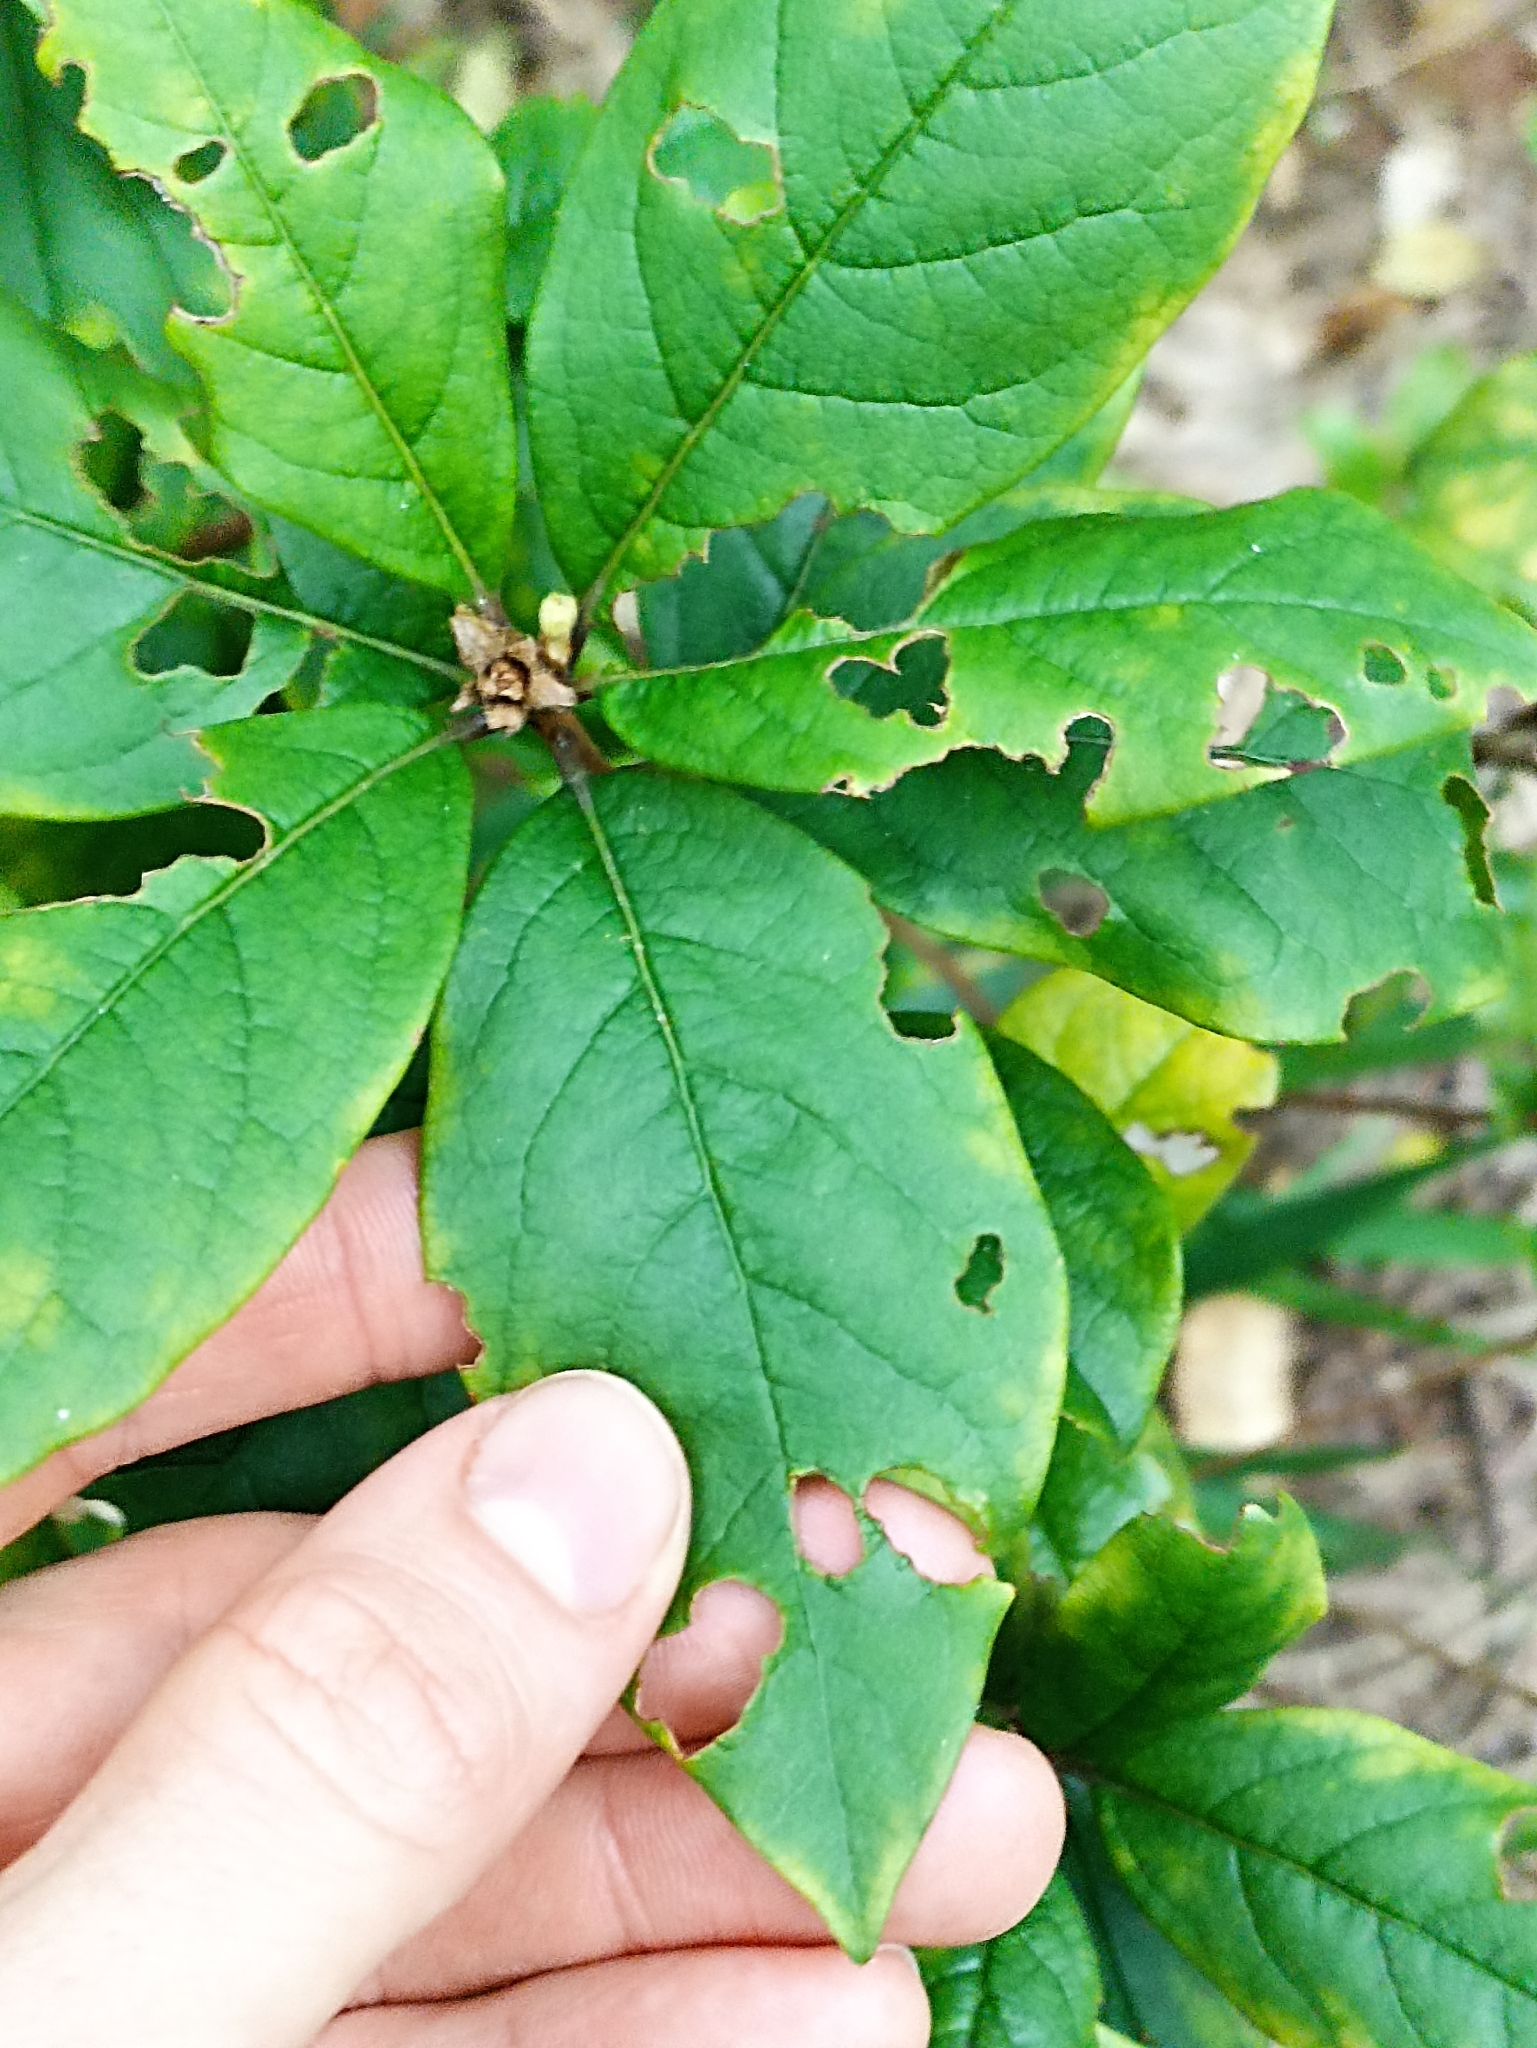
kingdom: Plantae
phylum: Tracheophyta
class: Magnoliopsida
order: Apiales
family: Pittosporaceae
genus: Pittosporum
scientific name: Pittosporum revolutum
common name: Brisbane-laurel
